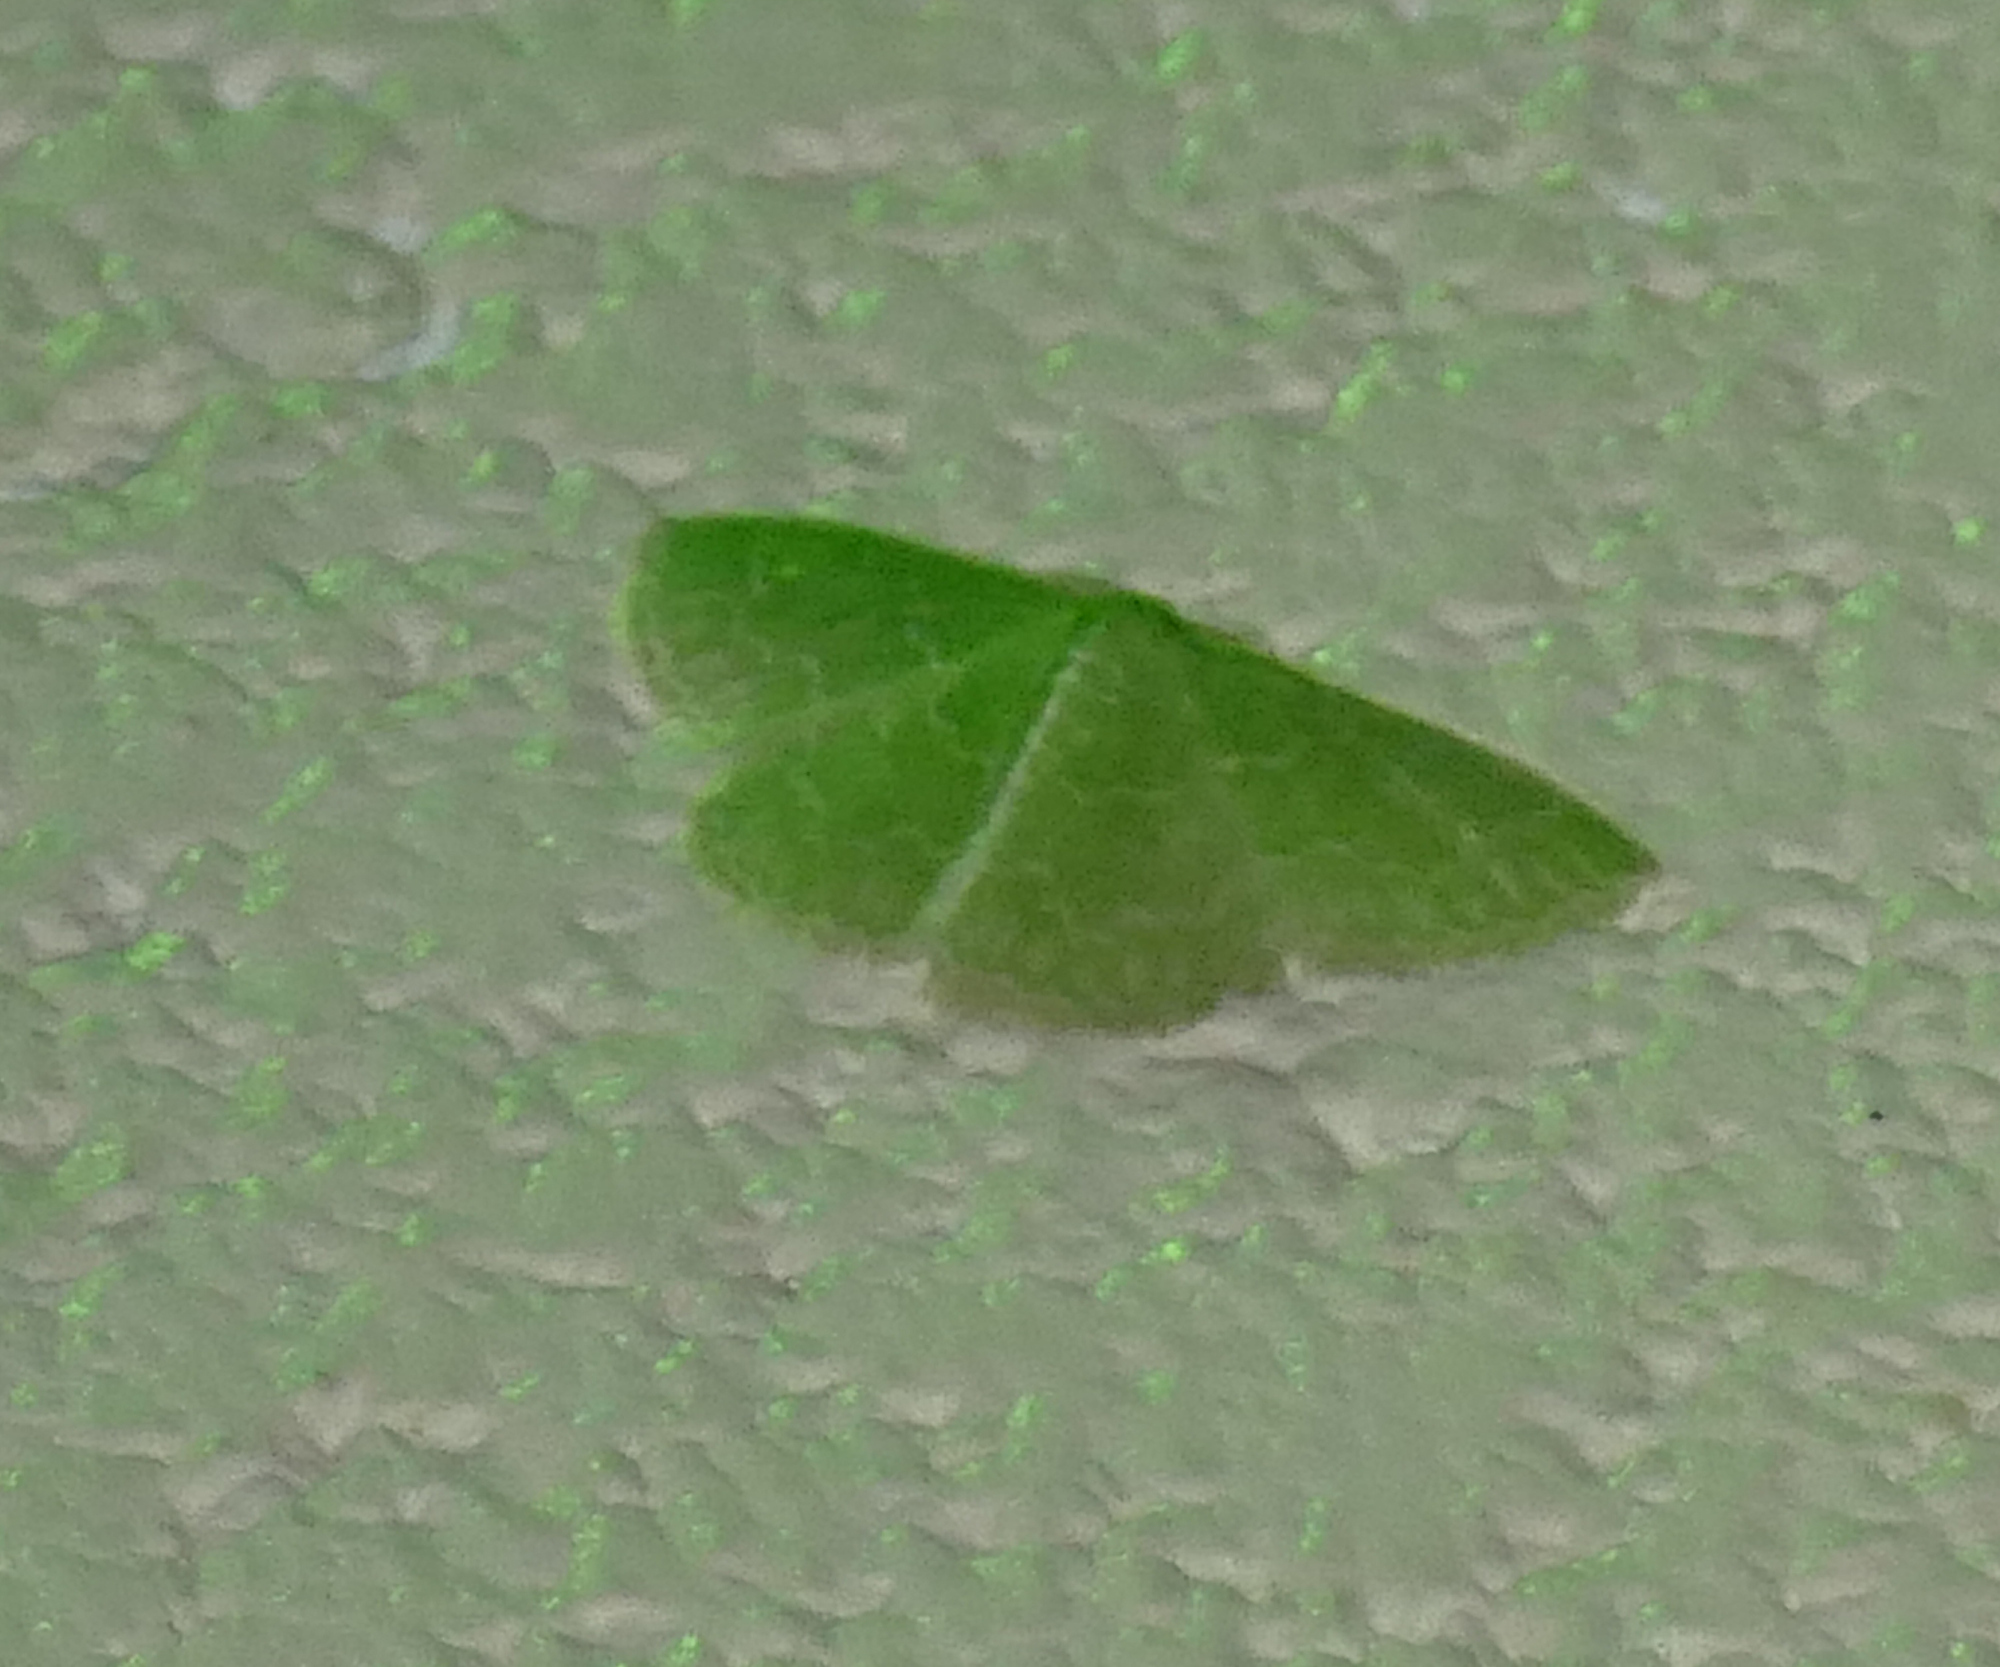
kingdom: Animalia
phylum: Arthropoda
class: Insecta
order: Lepidoptera
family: Geometridae
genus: Synchlora
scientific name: Synchlora frondaria
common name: Southern emerald
